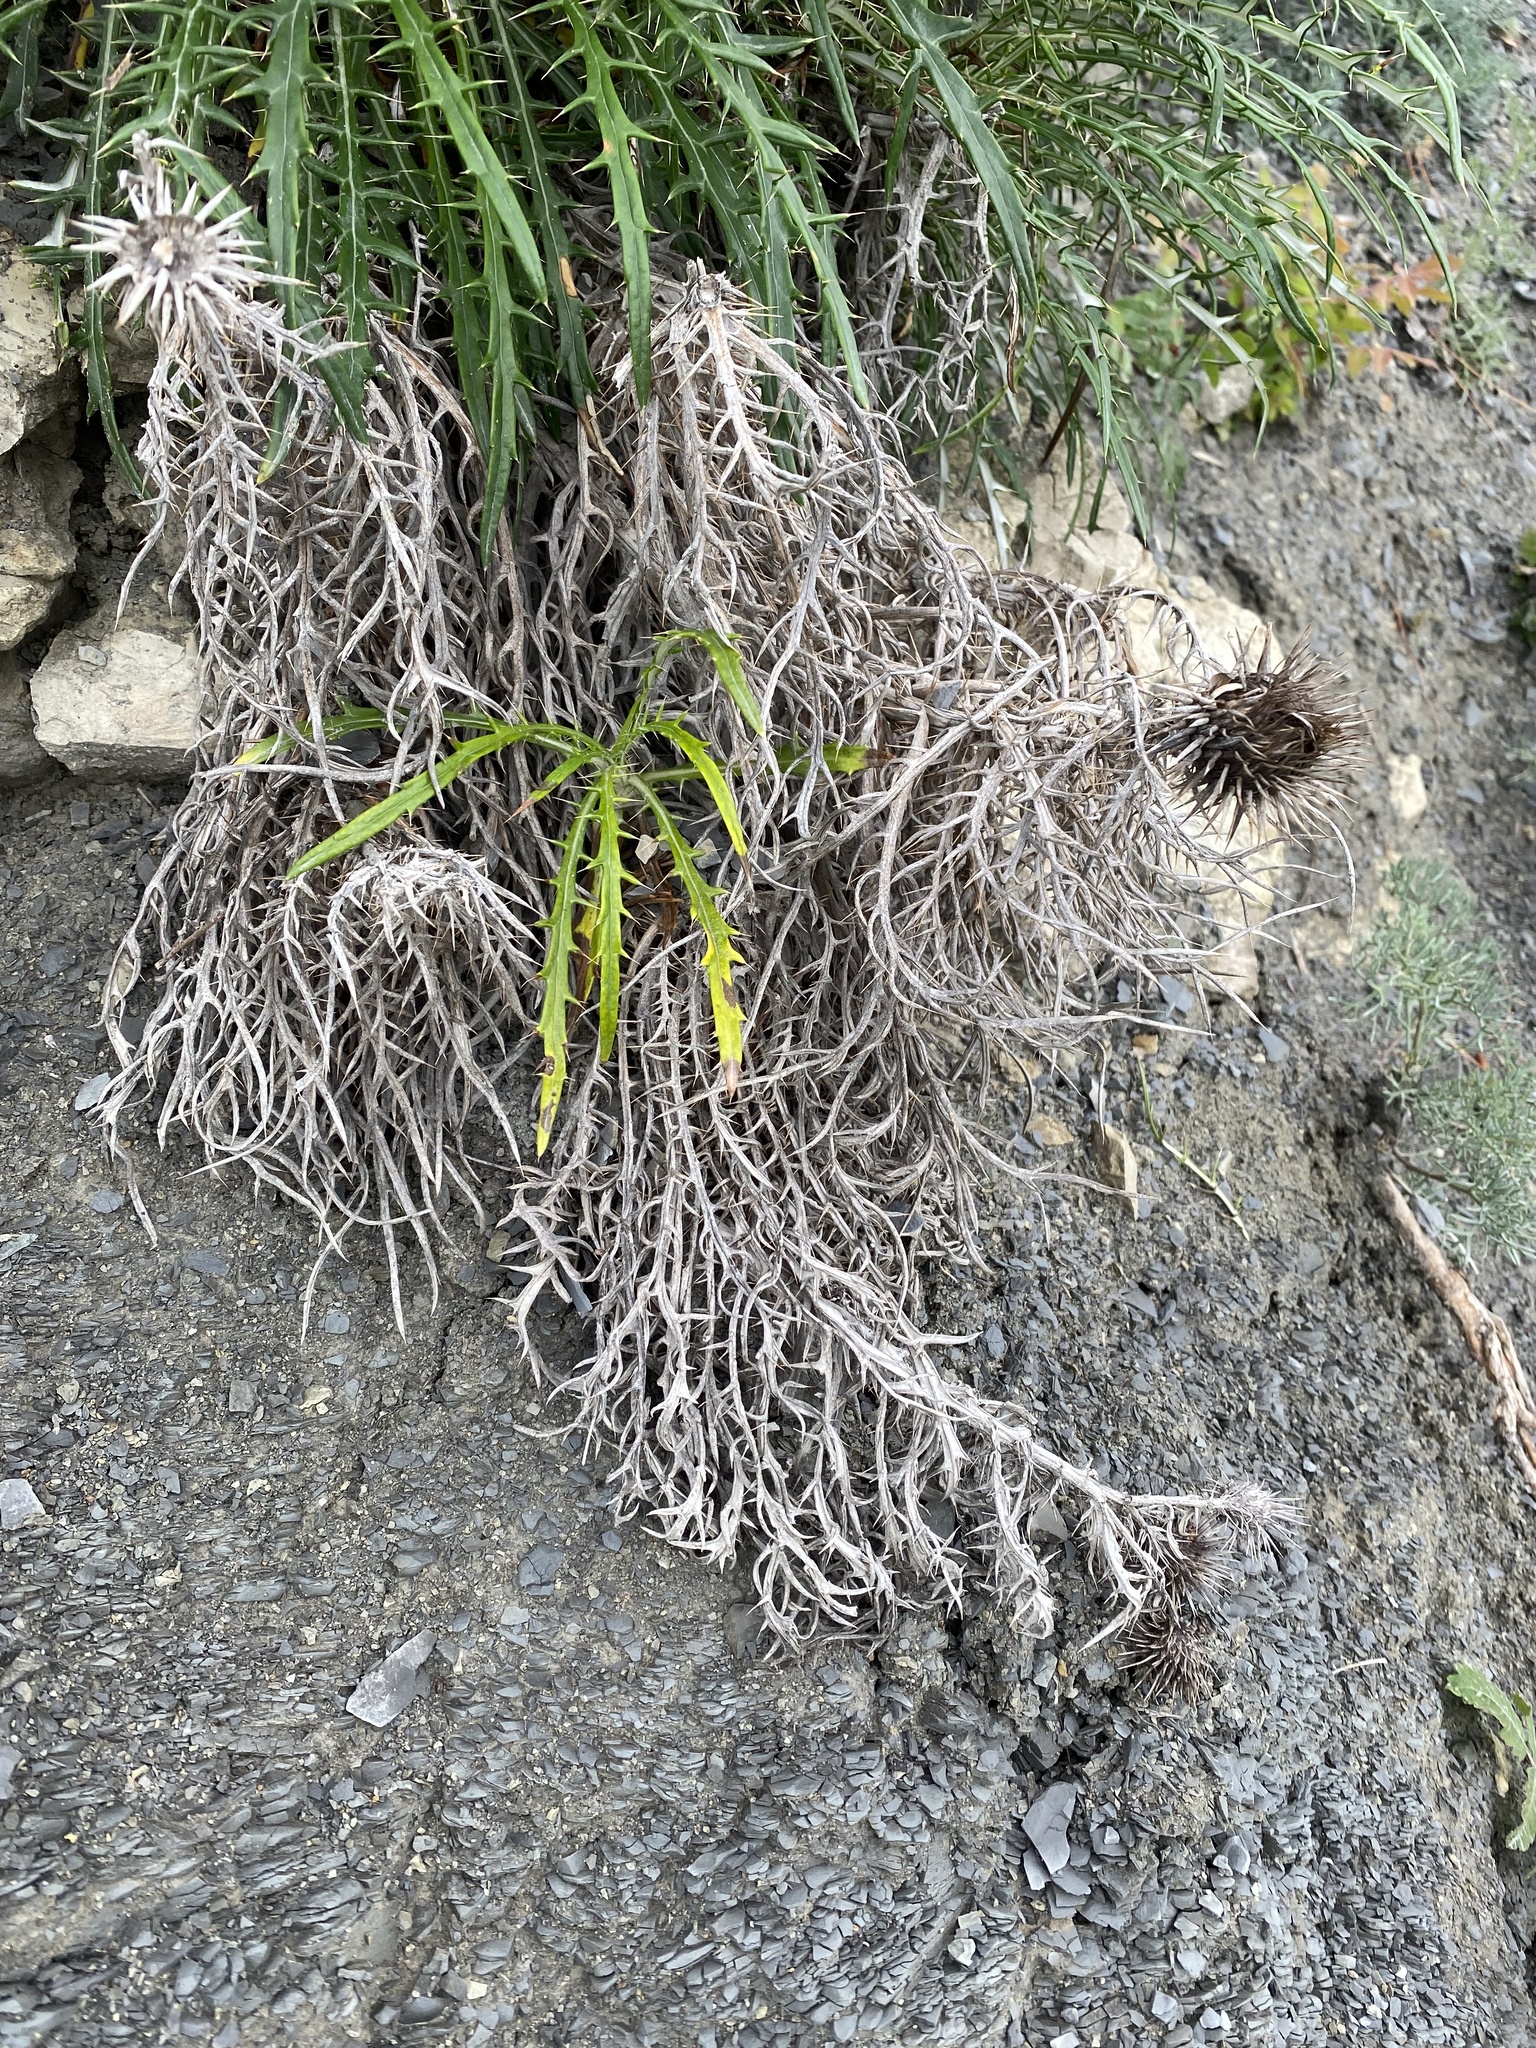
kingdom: Plantae
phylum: Tracheophyta
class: Magnoliopsida
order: Asterales
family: Asteraceae
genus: Ptilostemon
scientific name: Ptilostemon echinocephalus
